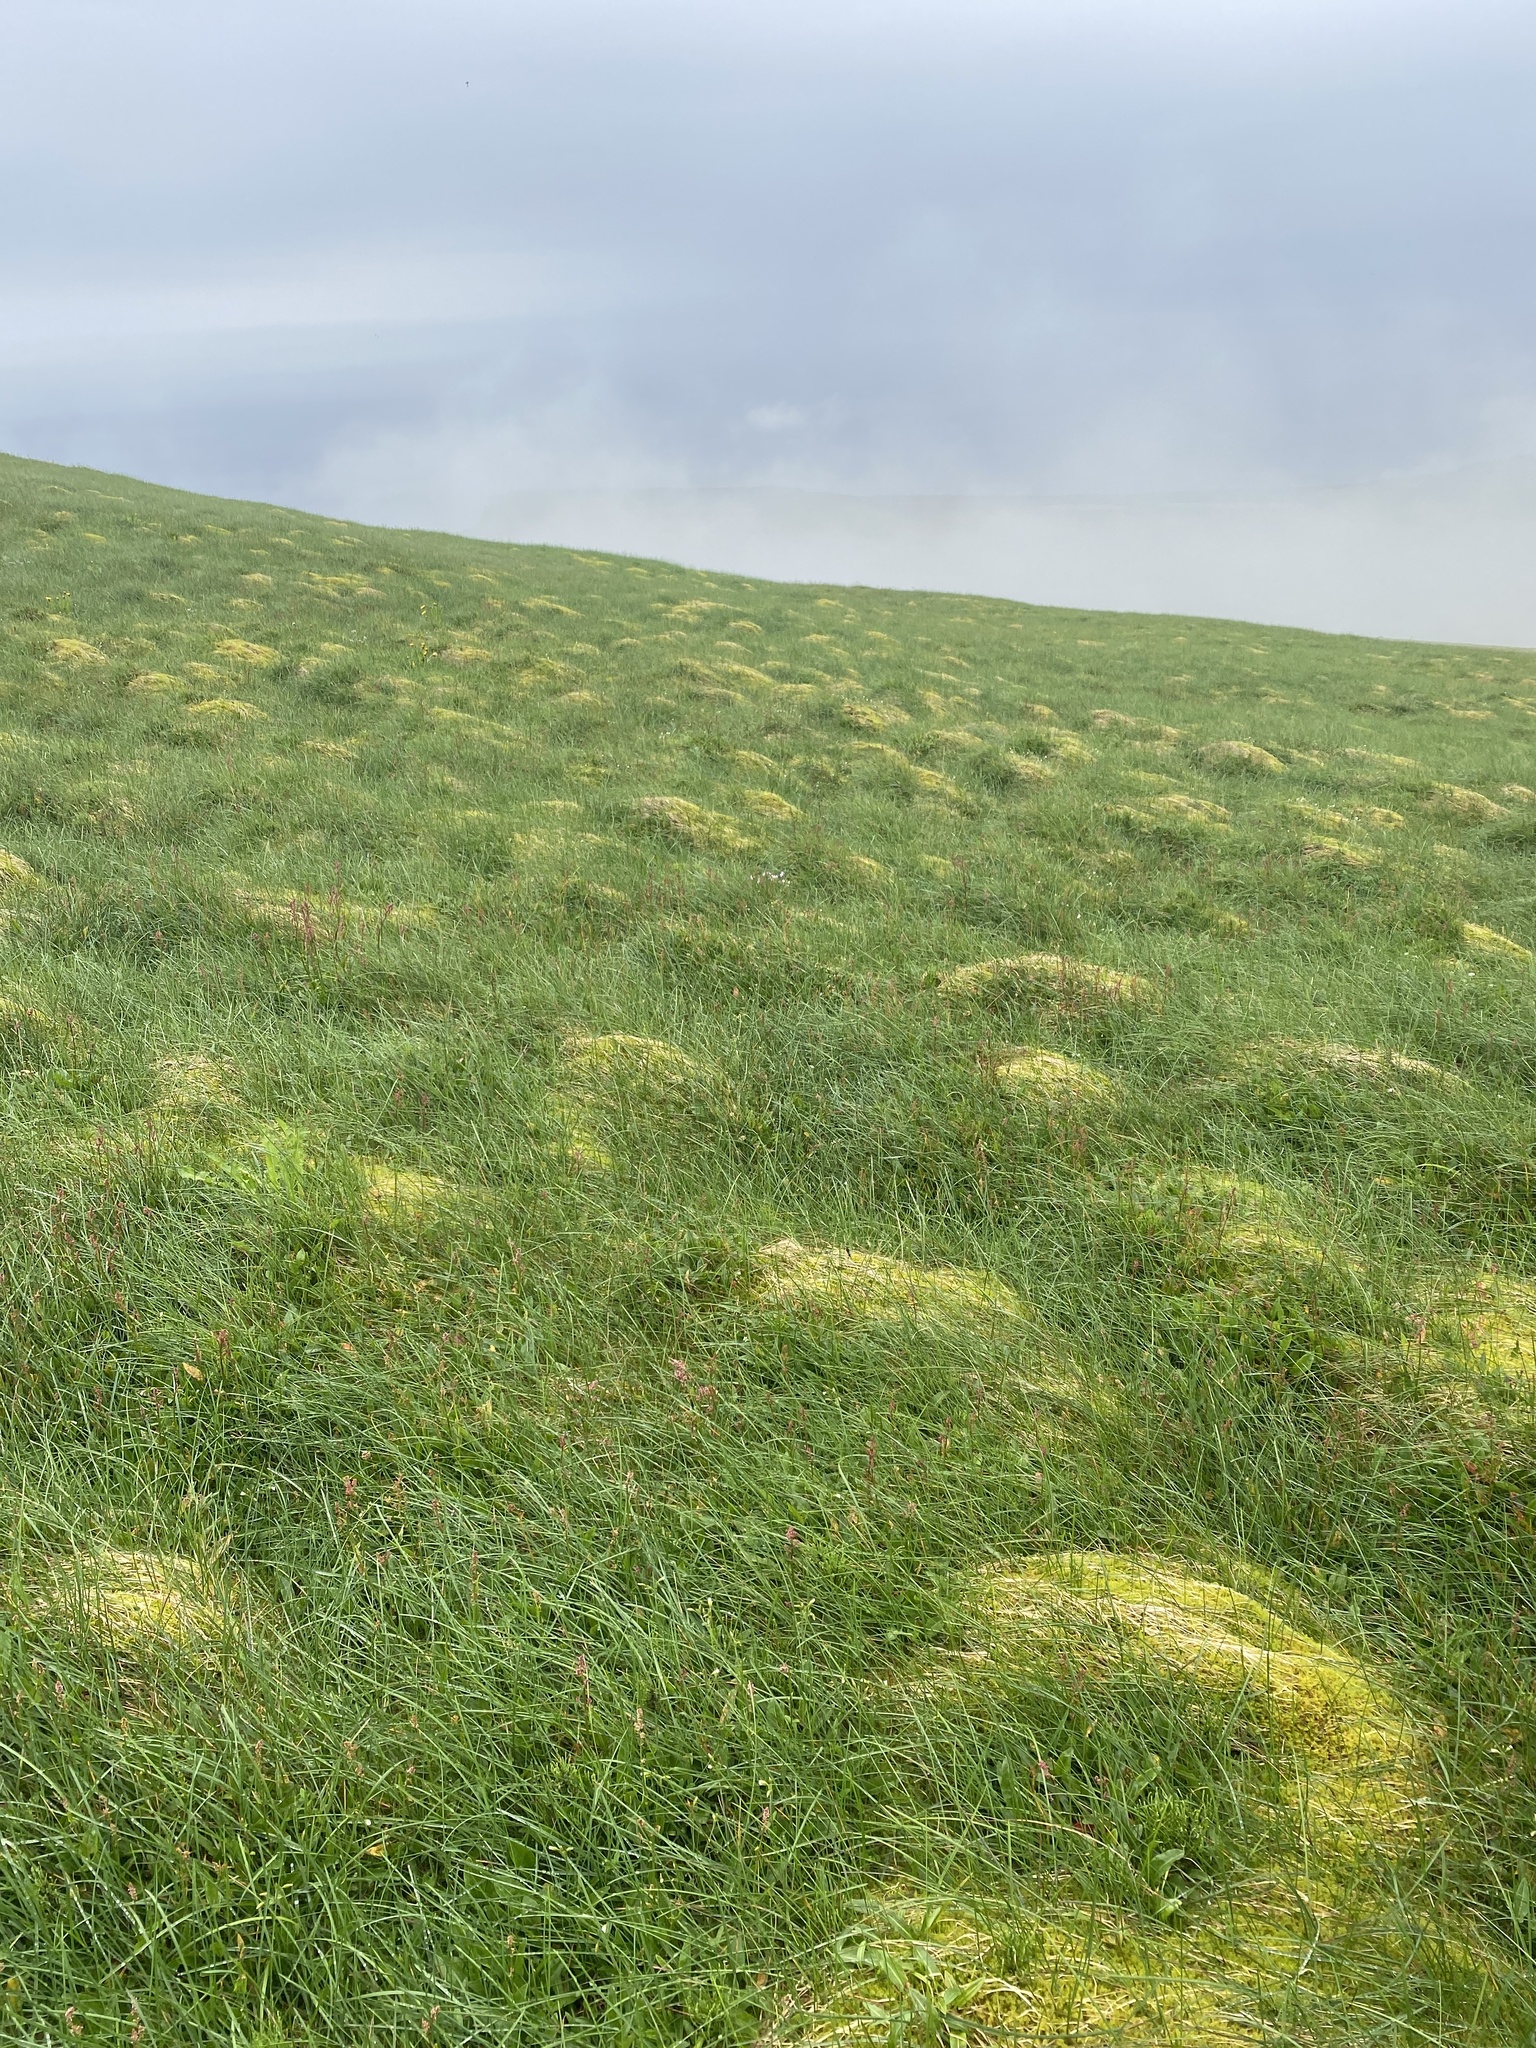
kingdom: Plantae
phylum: Bryophyta
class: Bryopsida
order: Hypnales
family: Hylocomiaceae
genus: Rhytidiadelphus
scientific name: Rhytidiadelphus squarrosus
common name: Springy turf-moss
